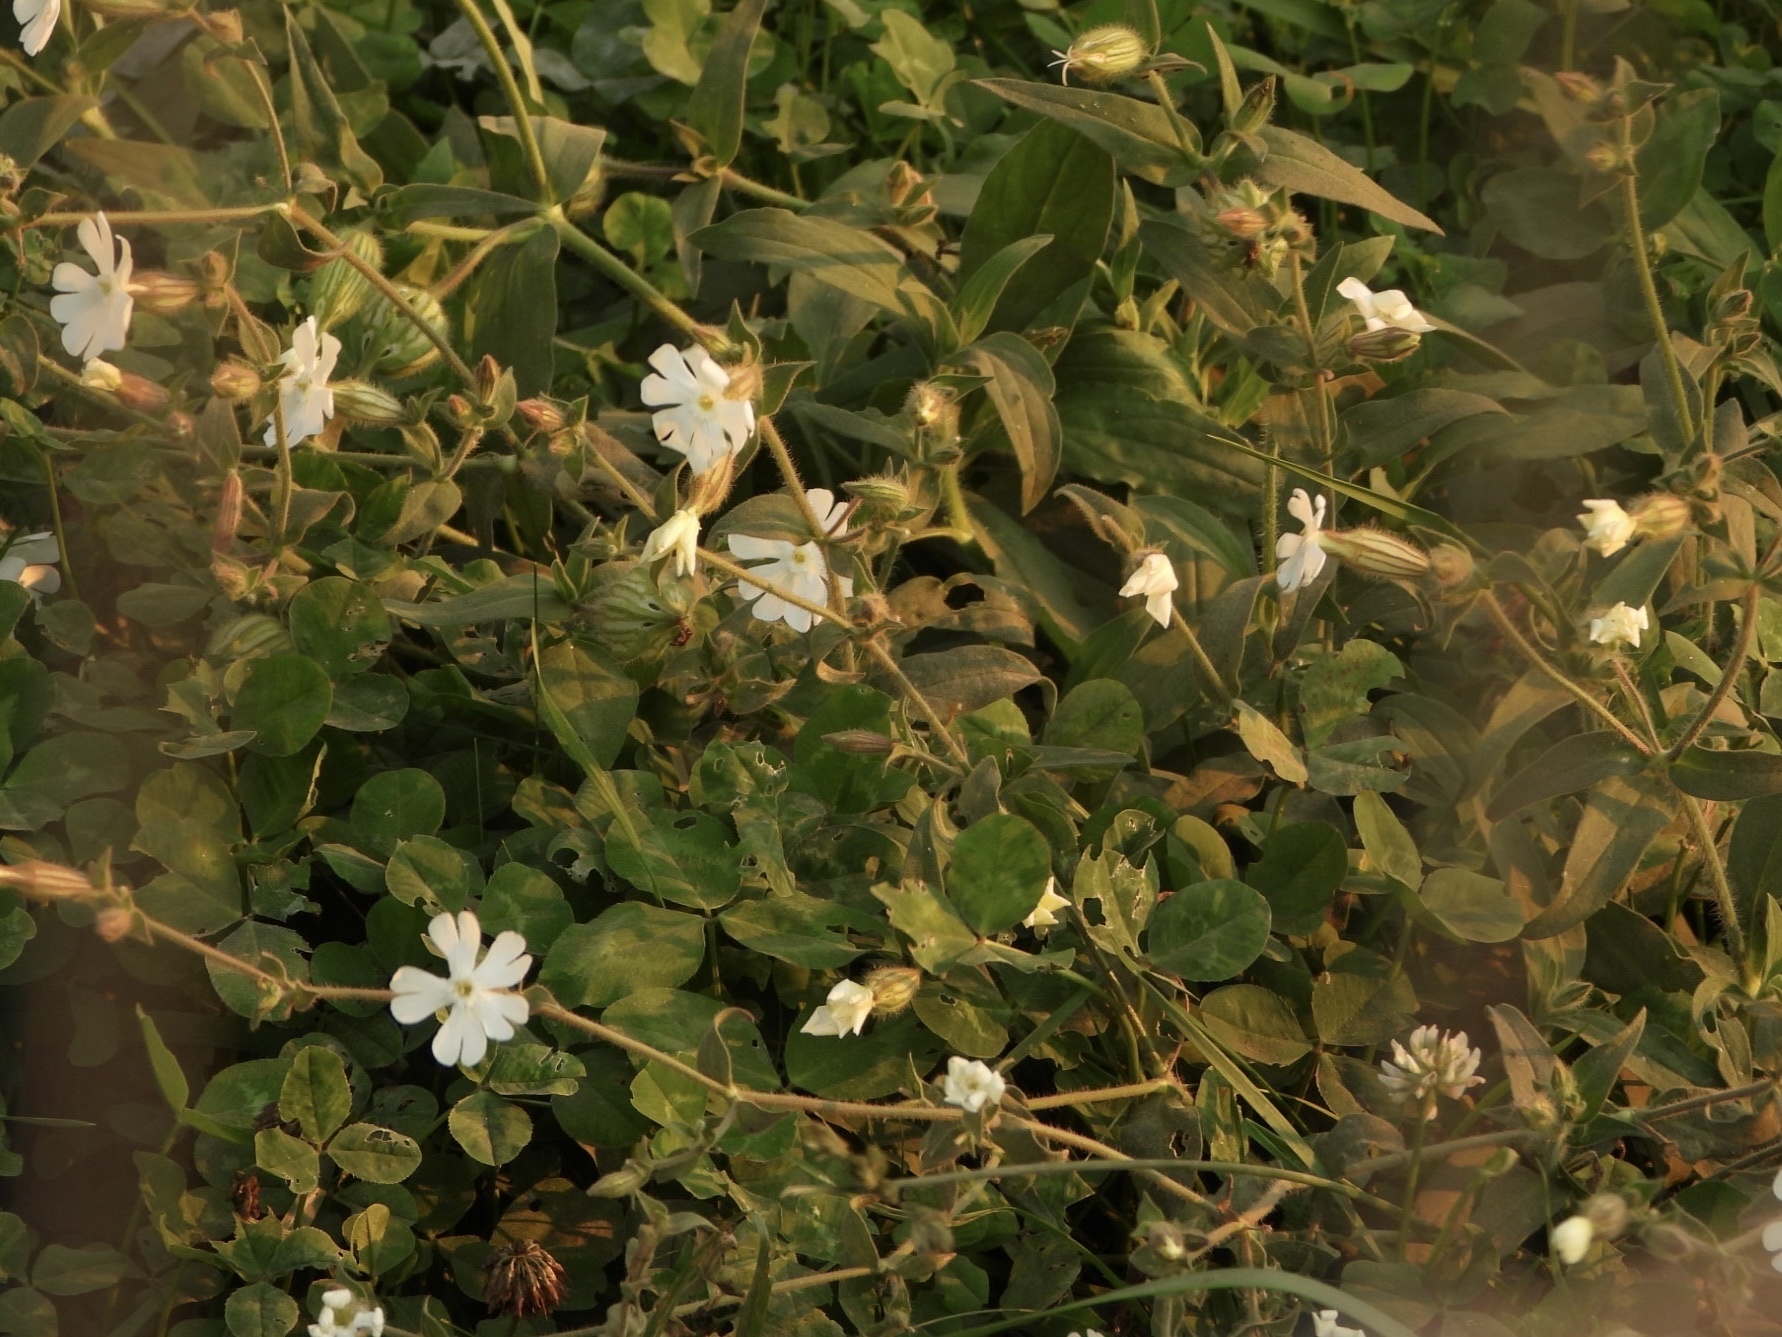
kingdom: Plantae
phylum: Tracheophyta
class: Magnoliopsida
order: Caryophyllales
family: Caryophyllaceae
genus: Silene
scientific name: Silene latifolia
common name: White campion
